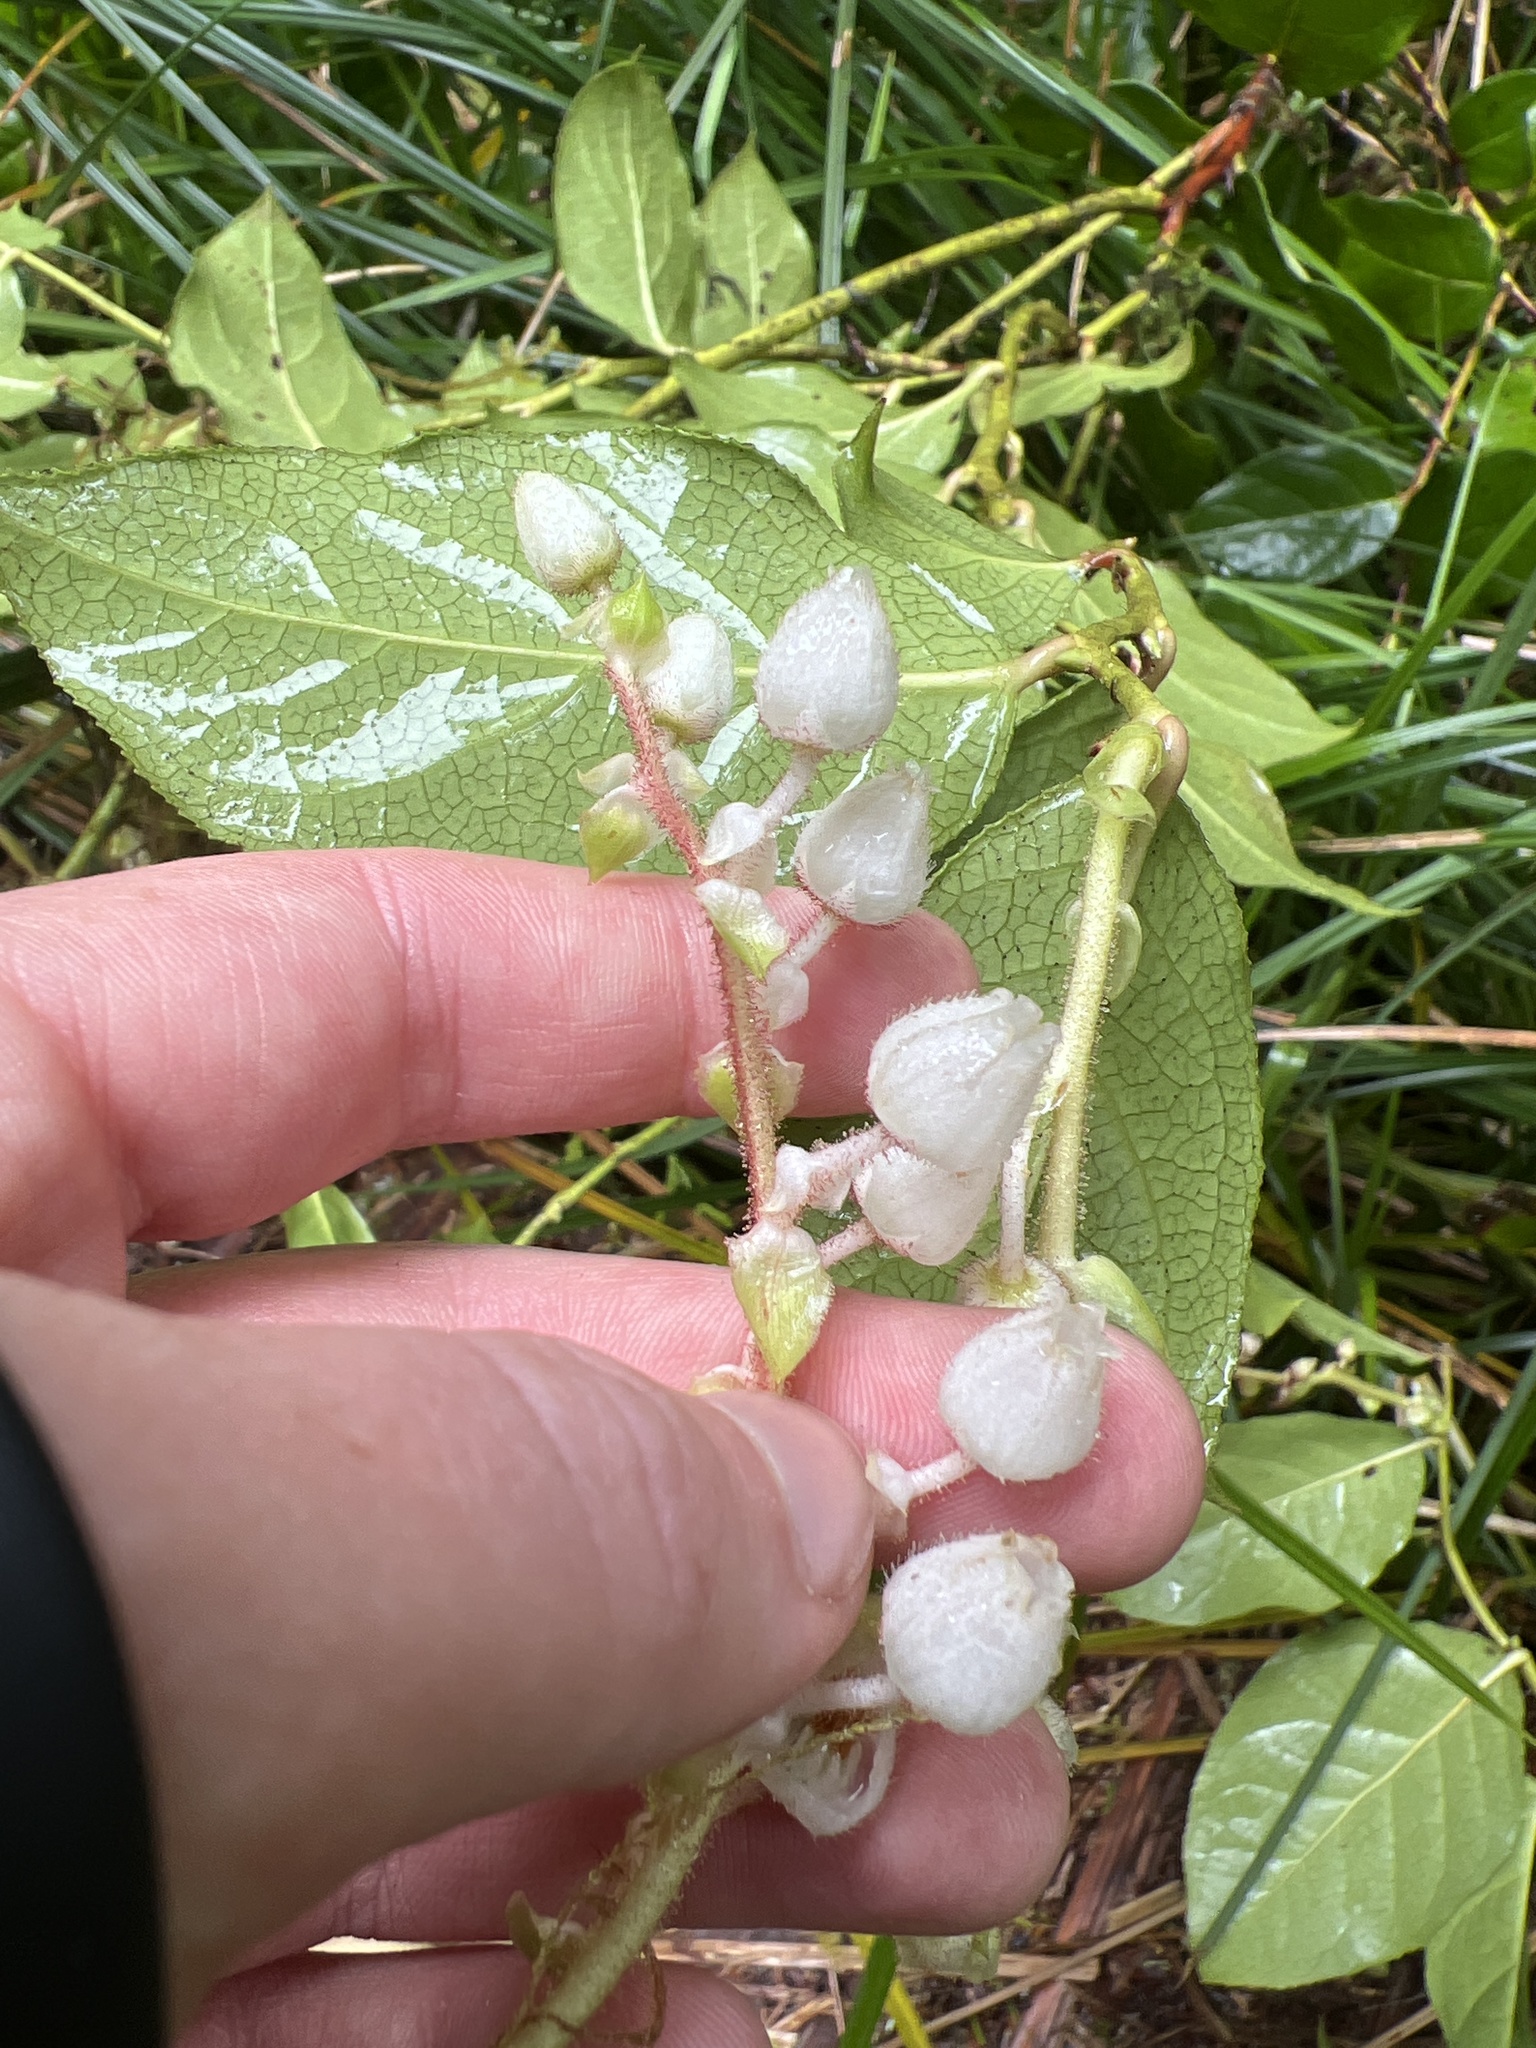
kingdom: Plantae
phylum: Tracheophyta
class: Magnoliopsida
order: Ericales
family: Ericaceae
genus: Gaultheria
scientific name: Gaultheria shallon
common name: Shallon
